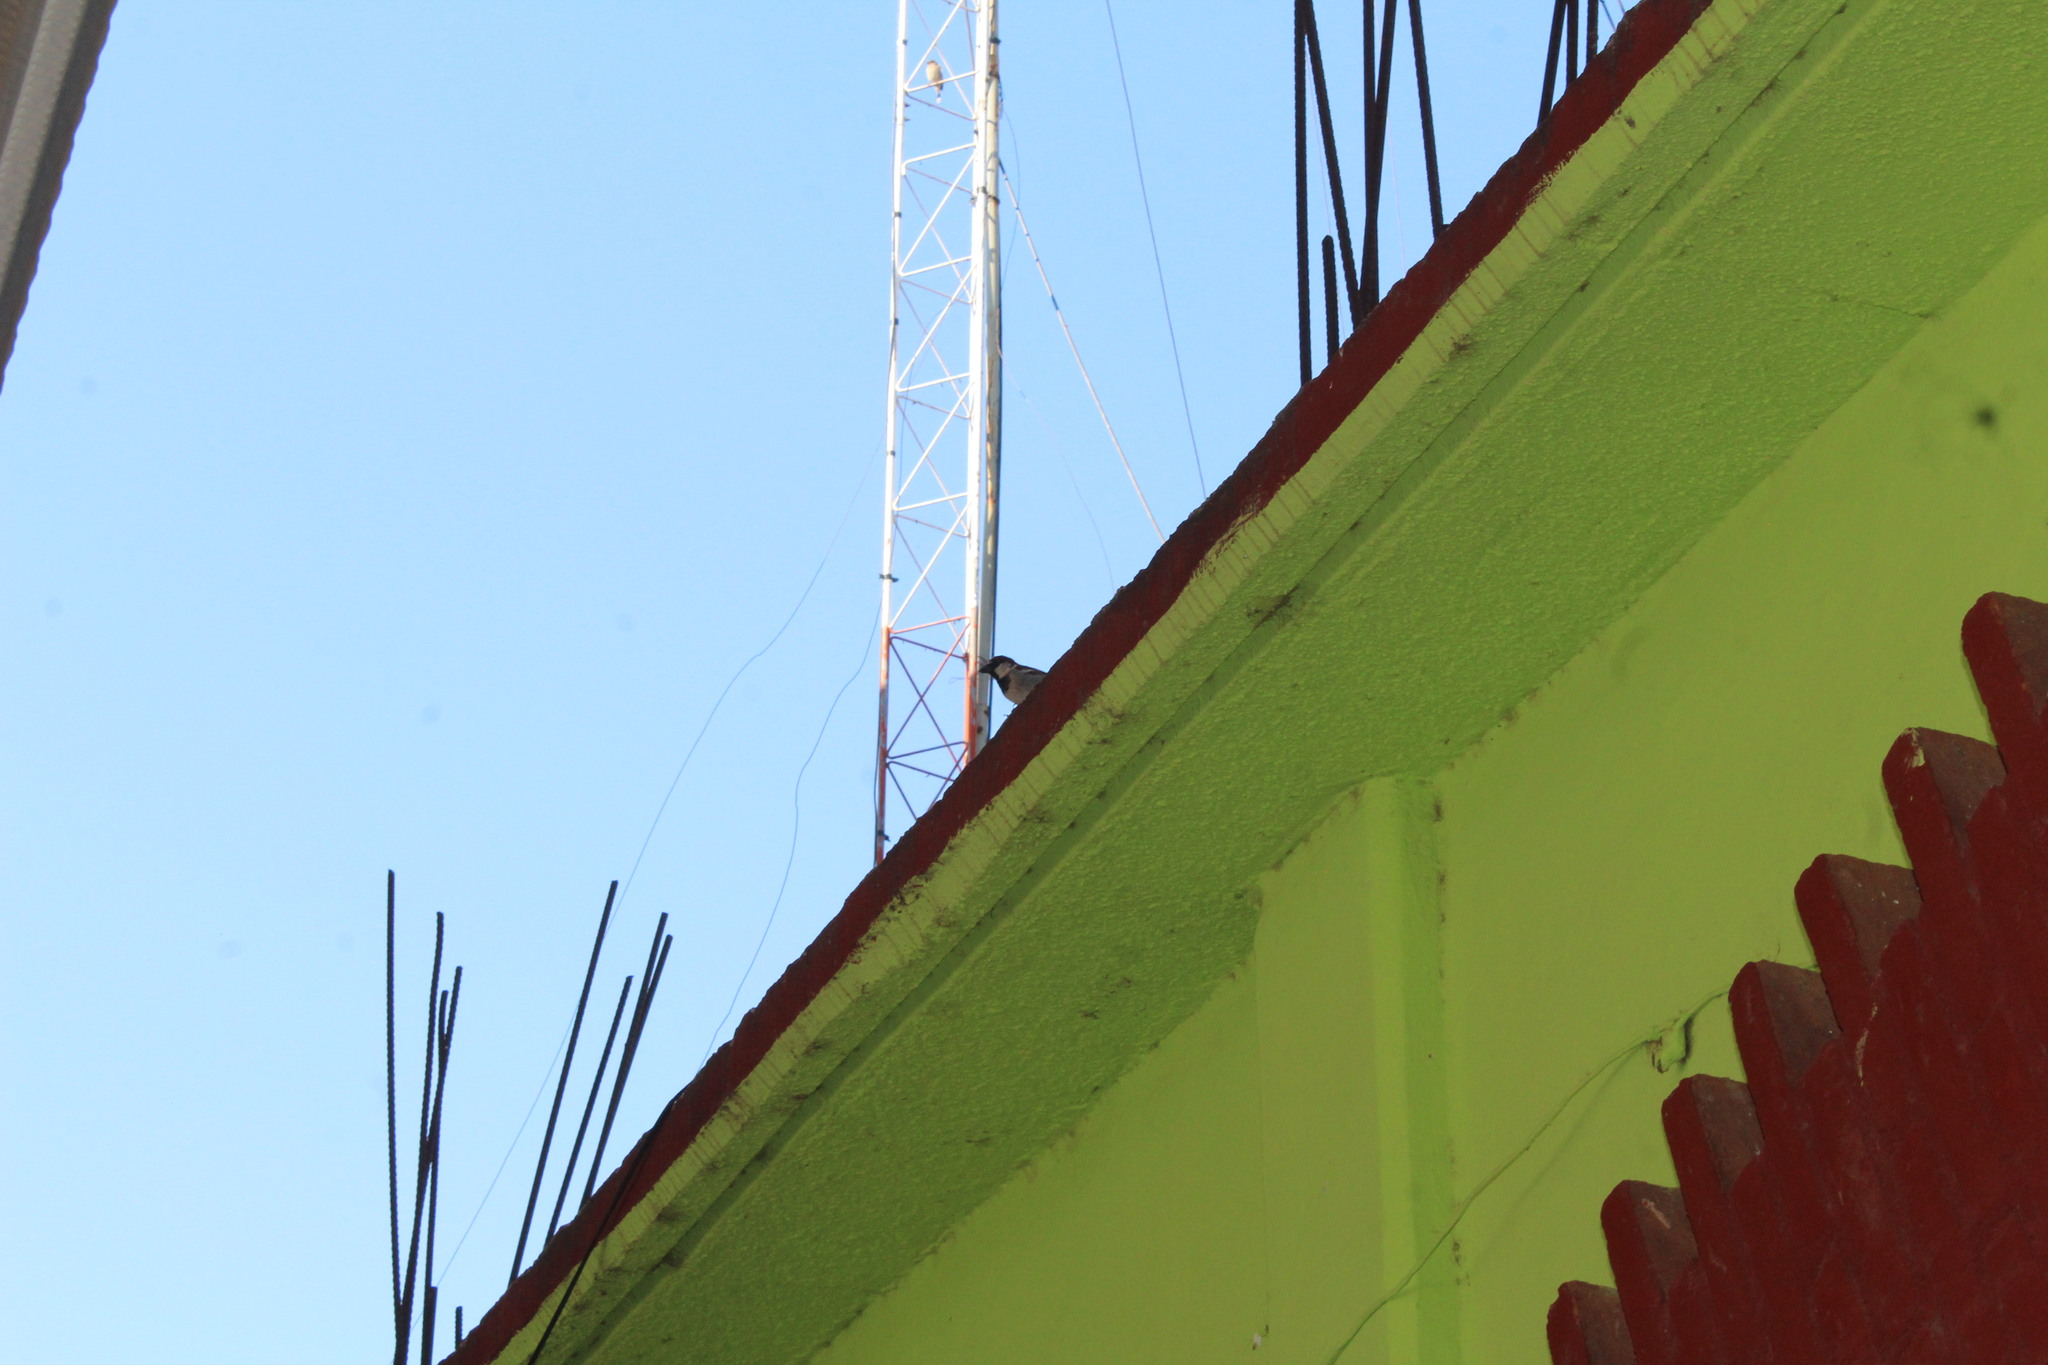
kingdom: Animalia
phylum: Chordata
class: Aves
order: Passeriformes
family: Passeridae
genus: Passer
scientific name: Passer domesticus
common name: House sparrow
